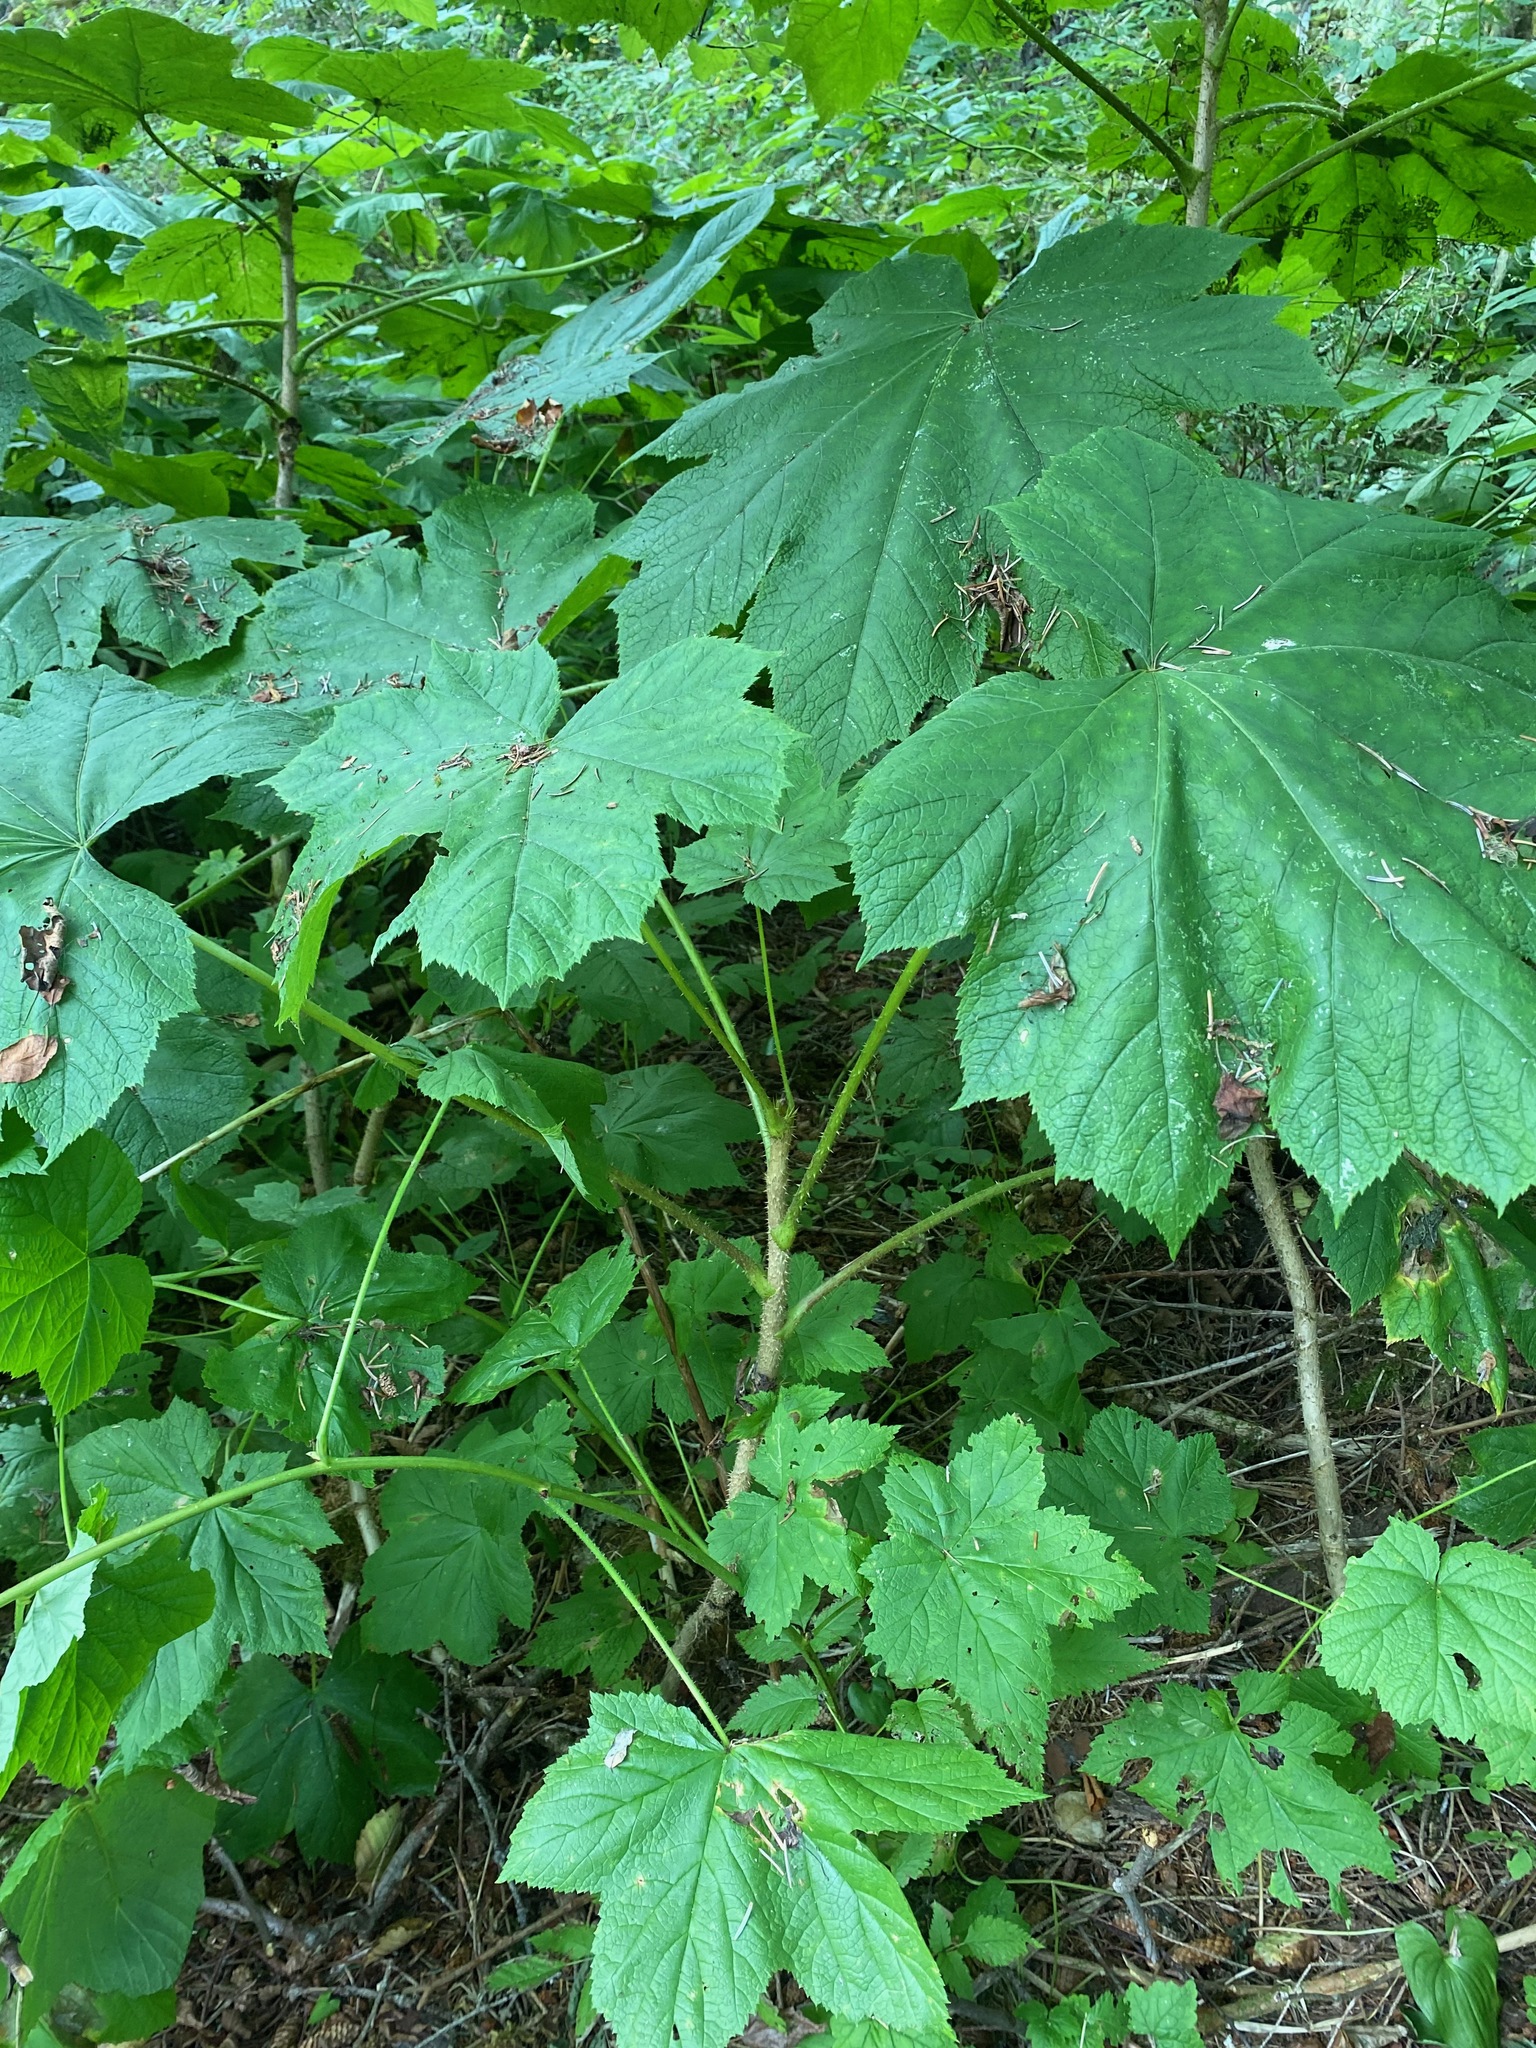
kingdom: Plantae
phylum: Tracheophyta
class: Magnoliopsida
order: Apiales
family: Araliaceae
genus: Oplopanax
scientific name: Oplopanax horridus
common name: Devil's walking-stick
